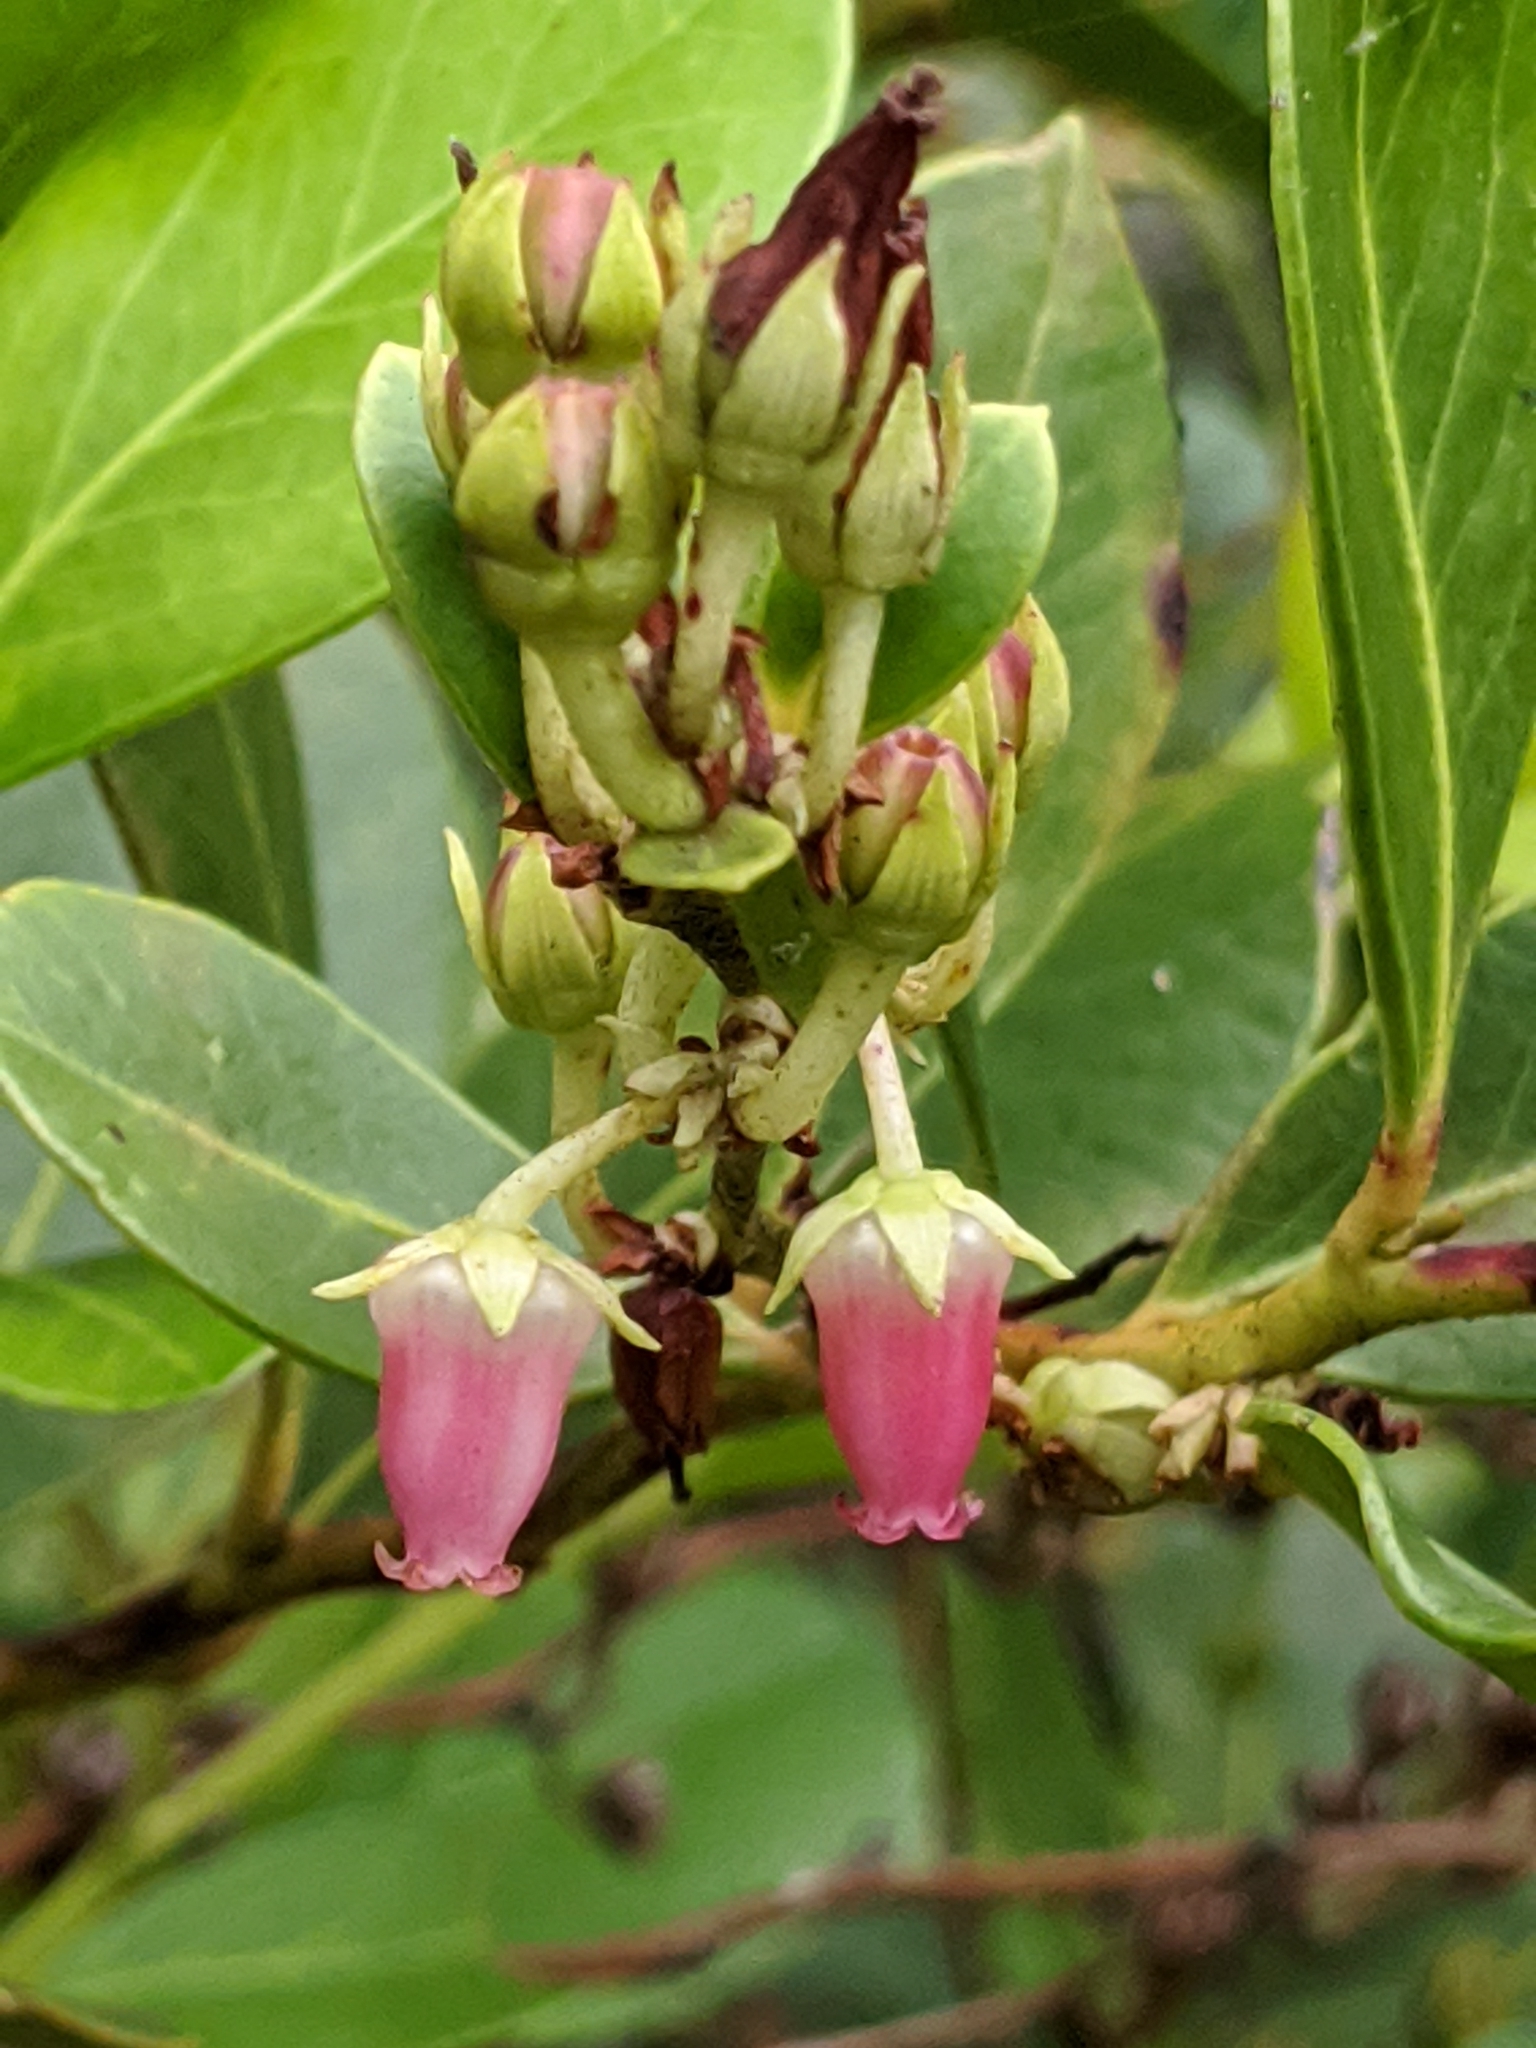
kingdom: Plantae
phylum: Tracheophyta
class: Magnoliopsida
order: Ericales
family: Ericaceae
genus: Lyonia
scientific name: Lyonia lucida
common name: Fetterbush
